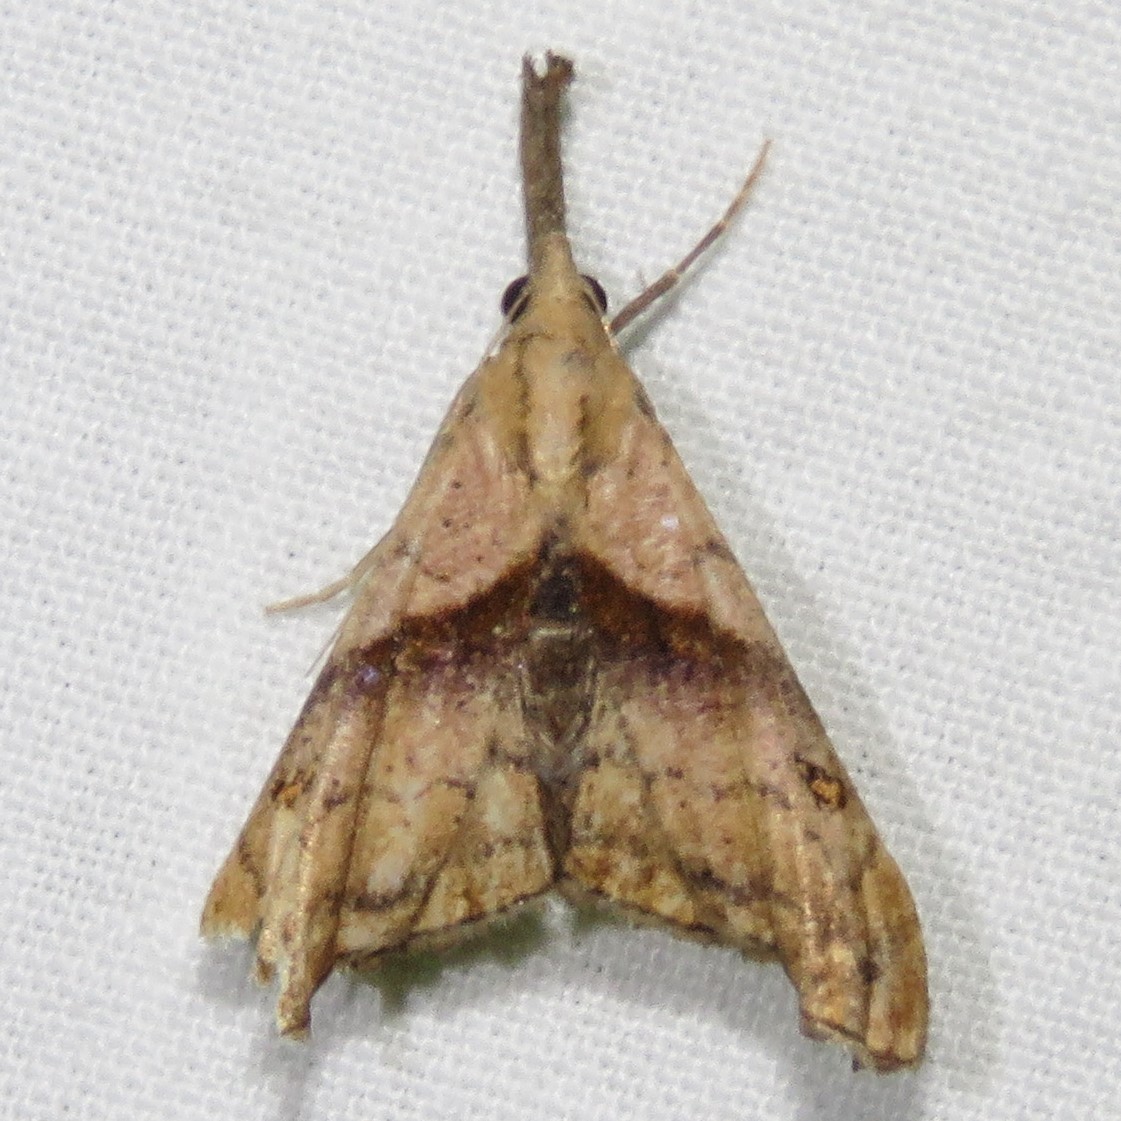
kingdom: Animalia
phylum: Arthropoda
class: Insecta
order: Lepidoptera
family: Erebidae
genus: Palthis
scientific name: Palthis angulalis
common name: Dark-spotted palthis moth
